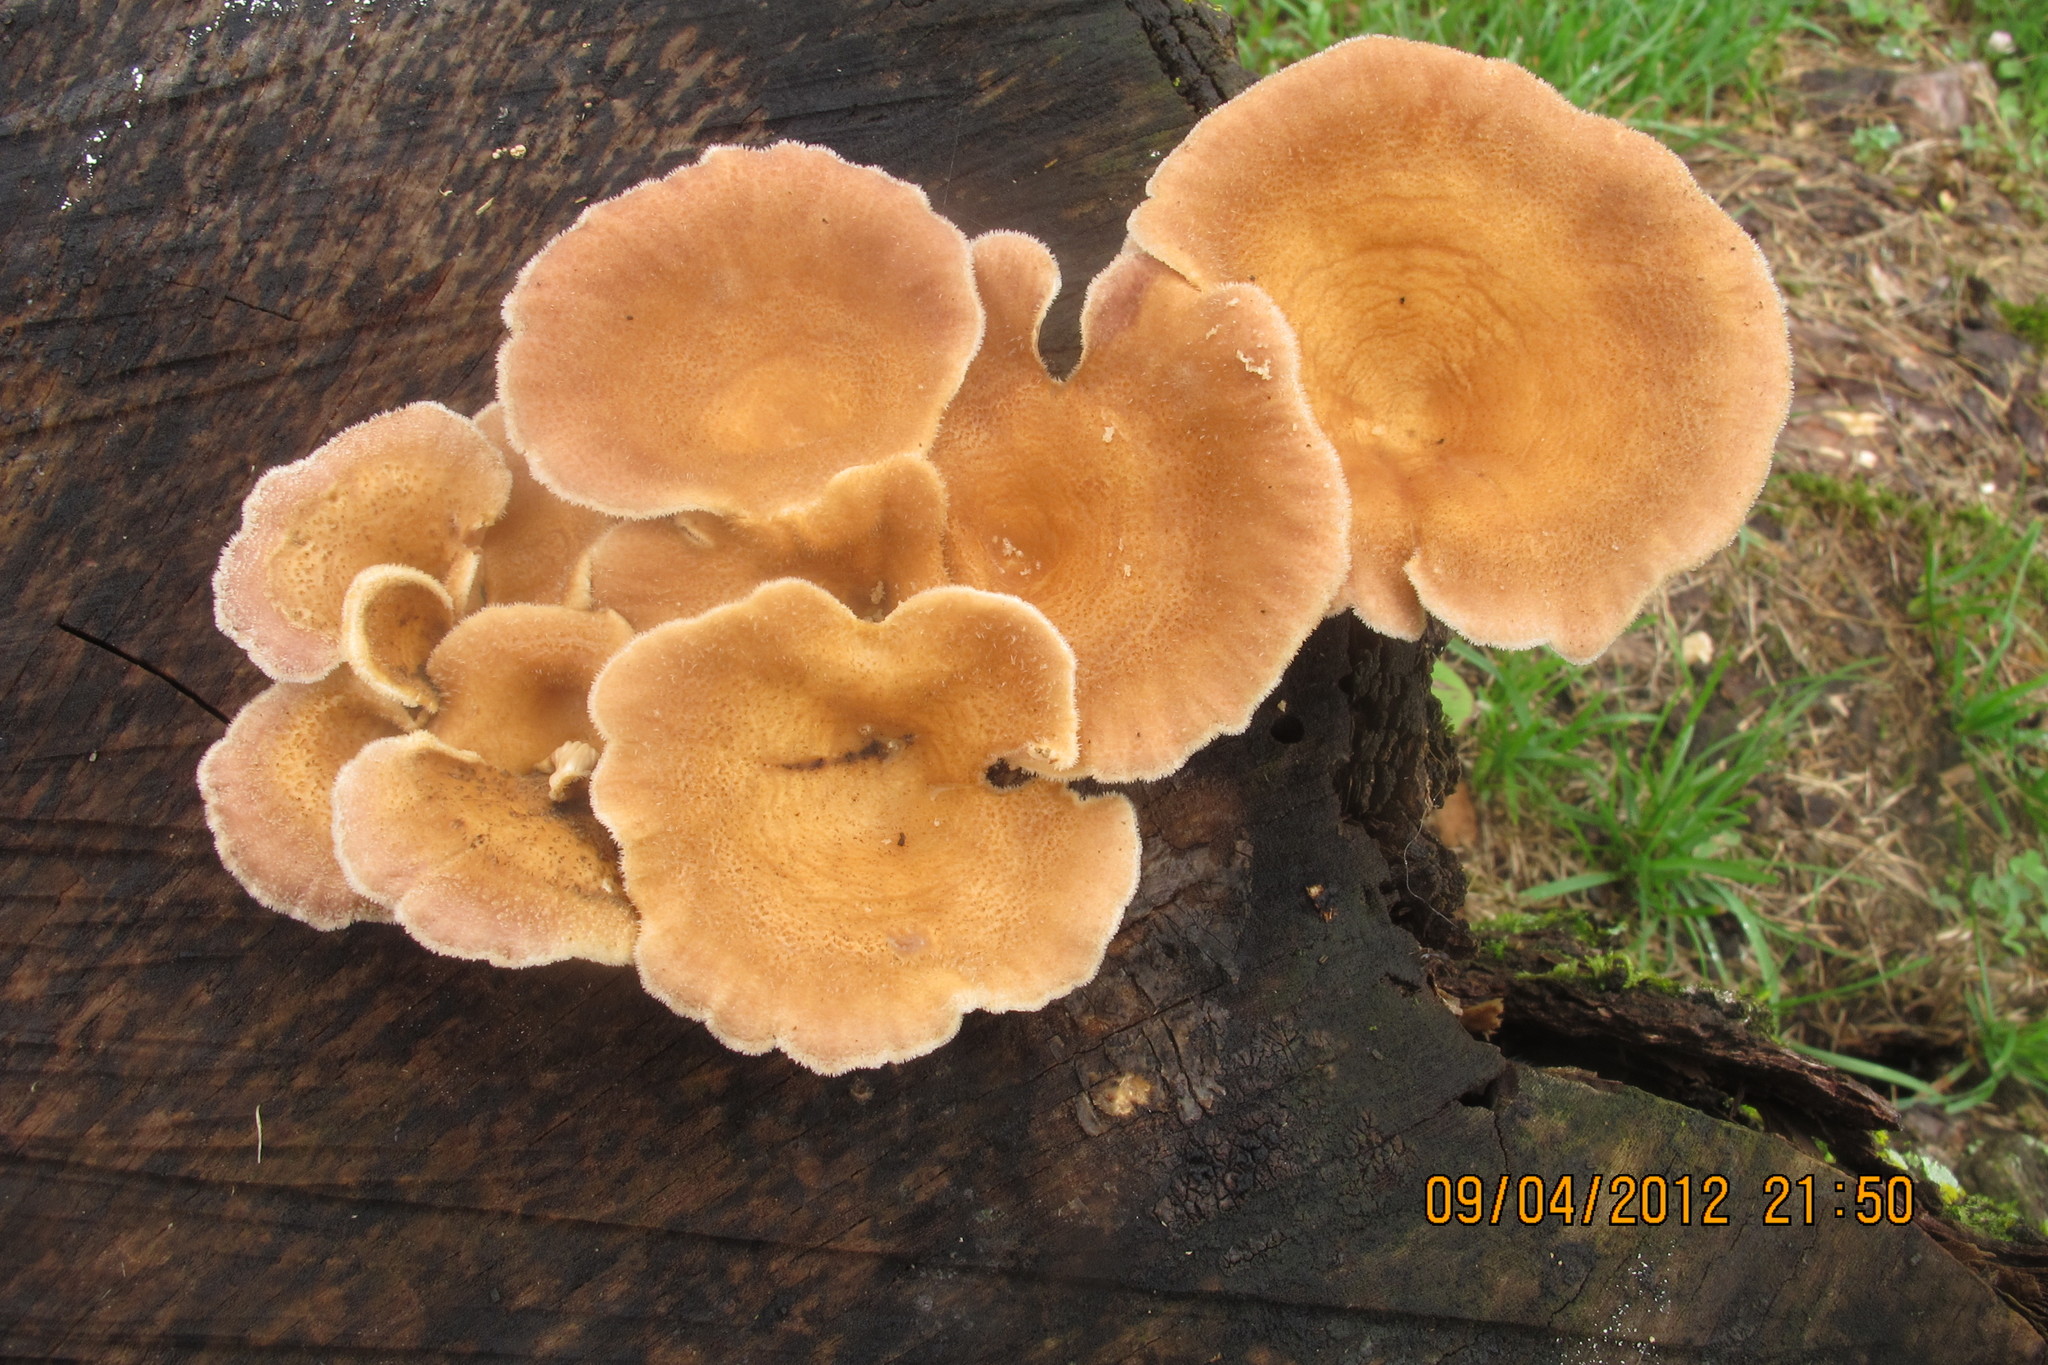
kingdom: Fungi
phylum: Basidiomycota
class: Agaricomycetes
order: Polyporales
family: Panaceae
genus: Panus
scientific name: Panus neostrigosus
